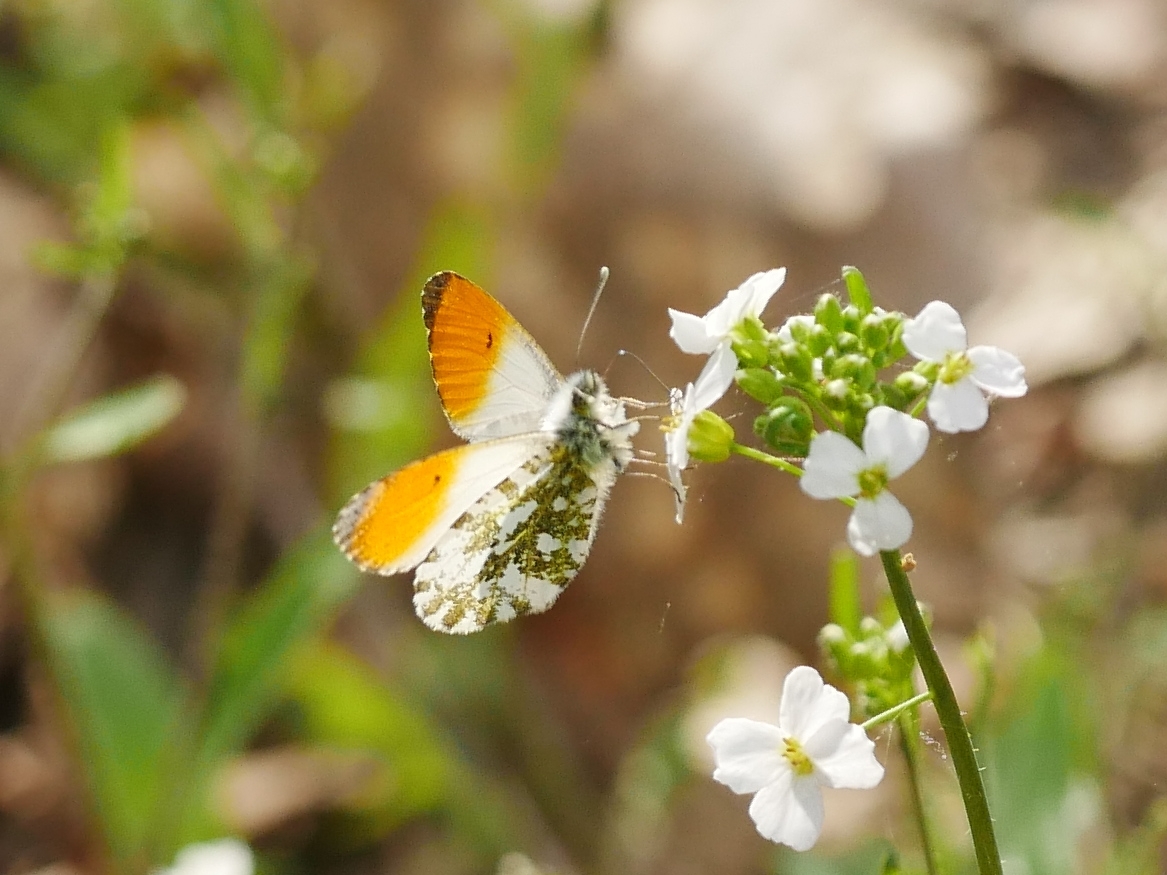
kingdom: Animalia
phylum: Arthropoda
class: Insecta
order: Lepidoptera
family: Pieridae
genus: Anthocharis
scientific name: Anthocharis cardamines
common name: Orange-tip
